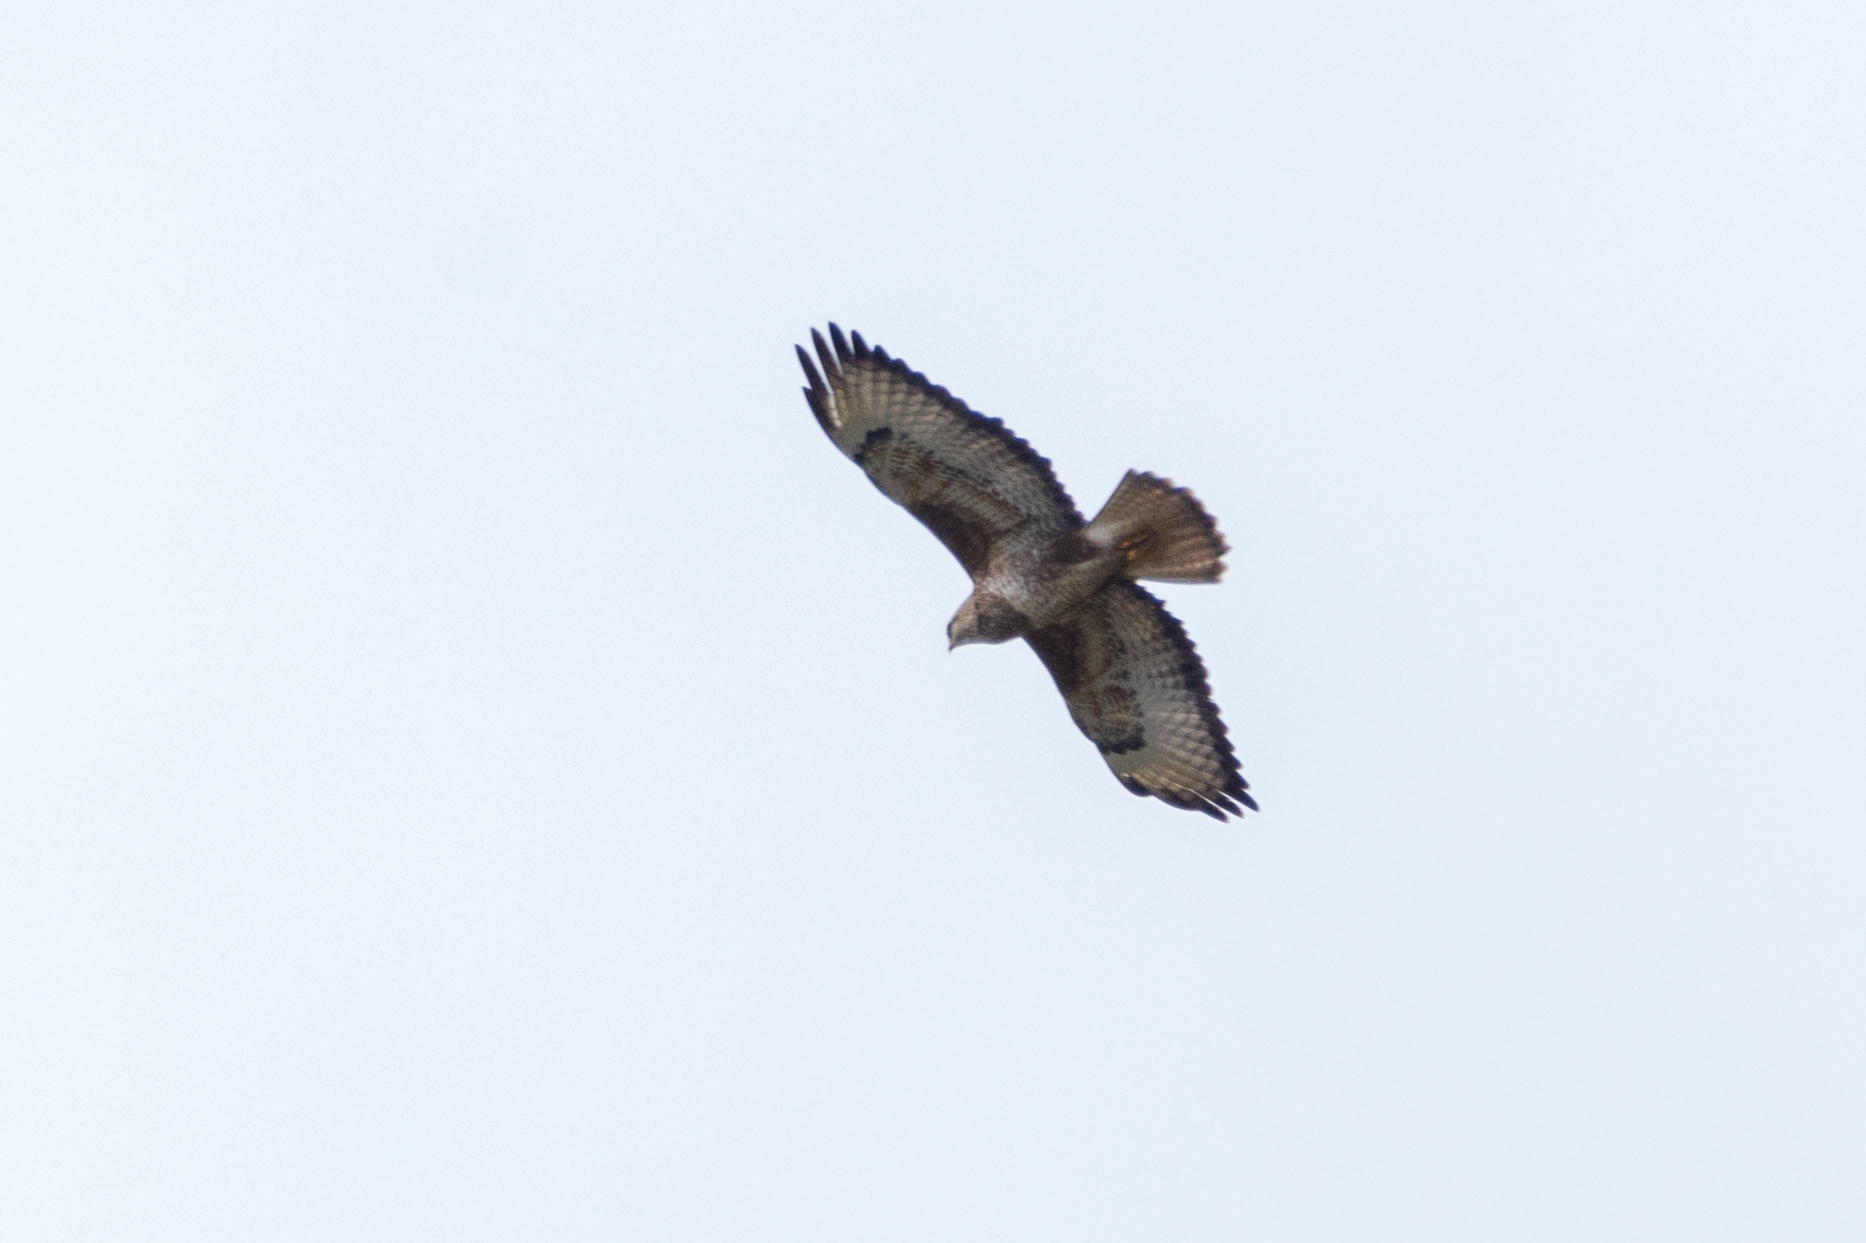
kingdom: Animalia
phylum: Chordata
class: Aves
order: Accipitriformes
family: Accipitridae
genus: Buteo
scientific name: Buteo buteo
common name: Common buzzard
